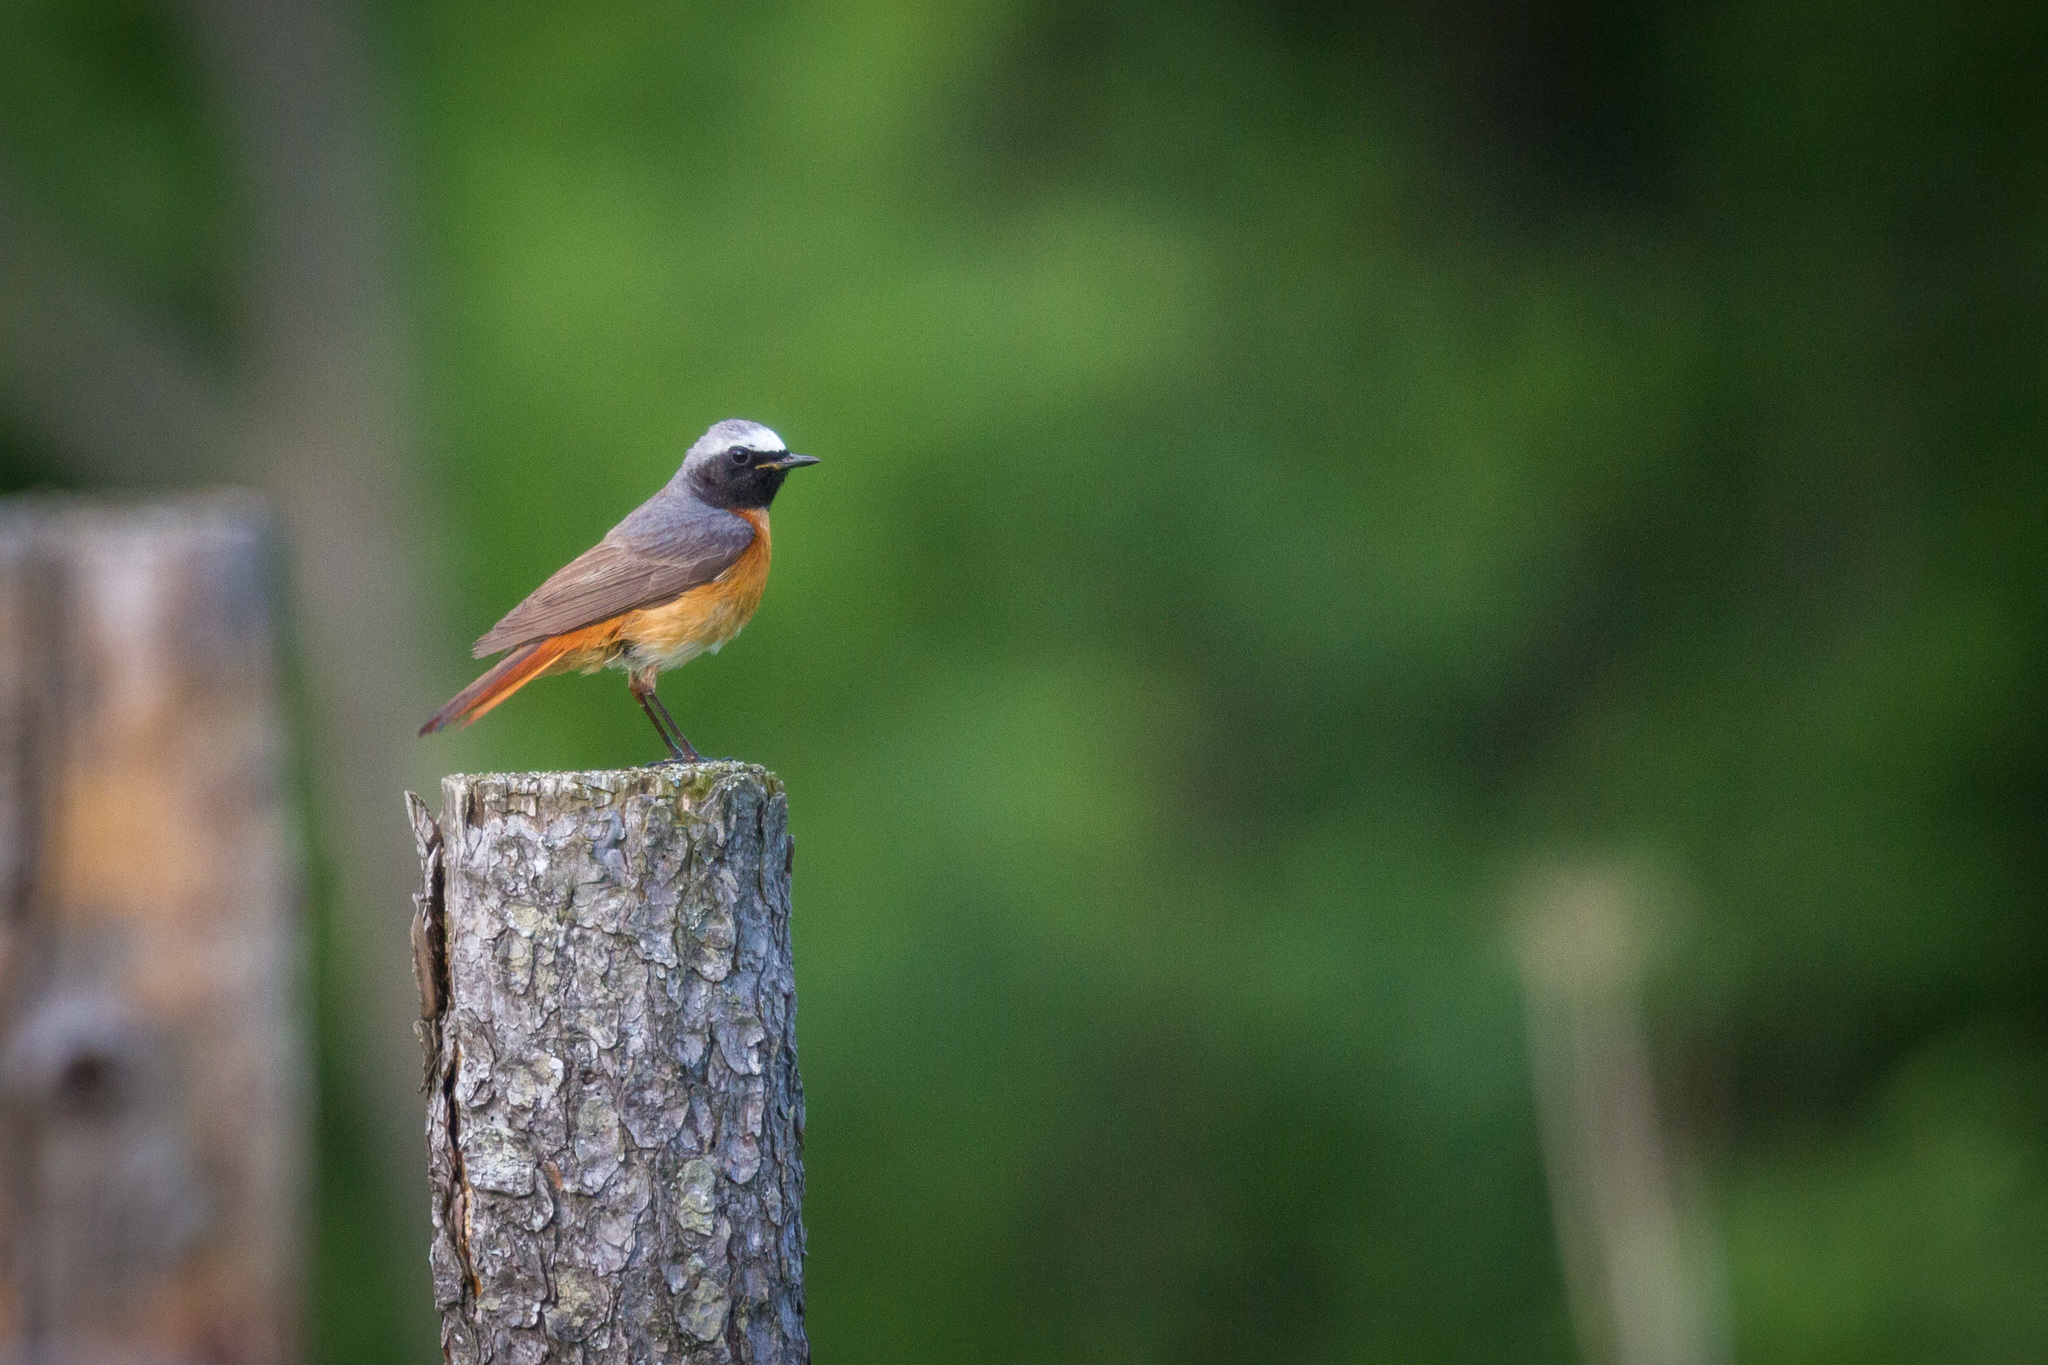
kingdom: Animalia
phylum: Chordata
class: Aves
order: Passeriformes
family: Muscicapidae
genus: Phoenicurus
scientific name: Phoenicurus phoenicurus
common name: Common redstart
